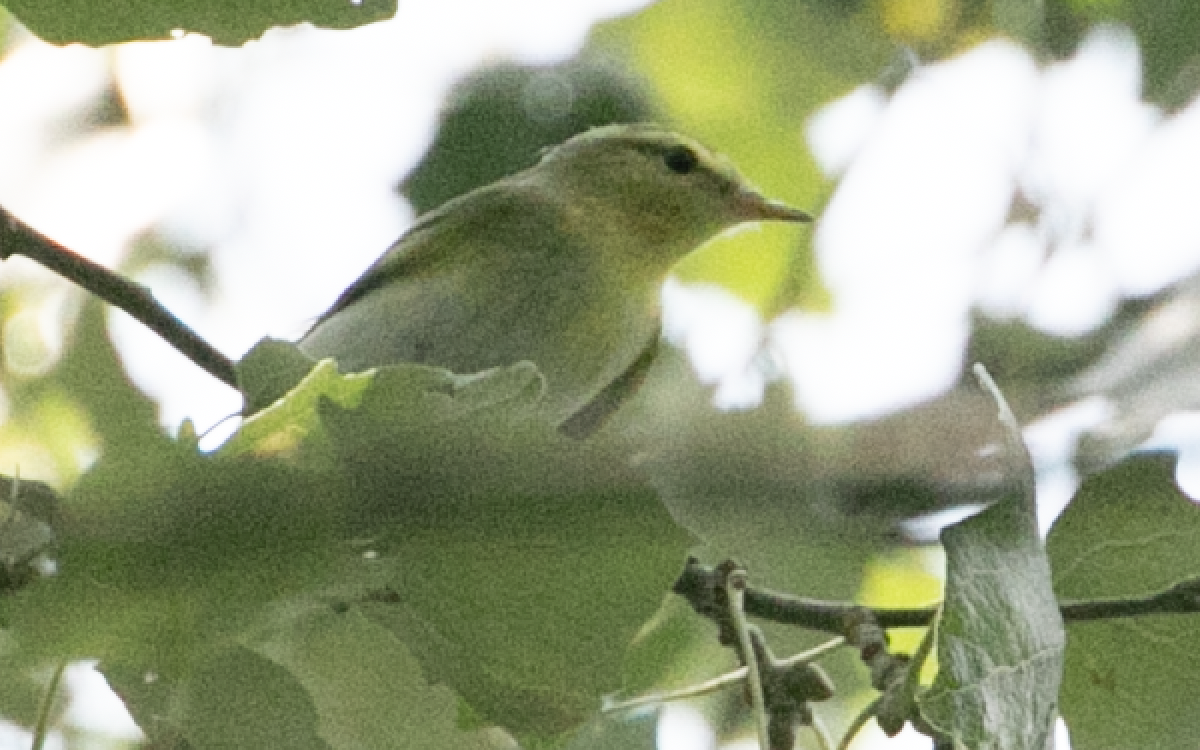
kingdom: Animalia
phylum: Chordata
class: Aves
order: Passeriformes
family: Phylloscopidae
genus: Phylloscopus
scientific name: Phylloscopus sibillatrix
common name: Wood warbler
